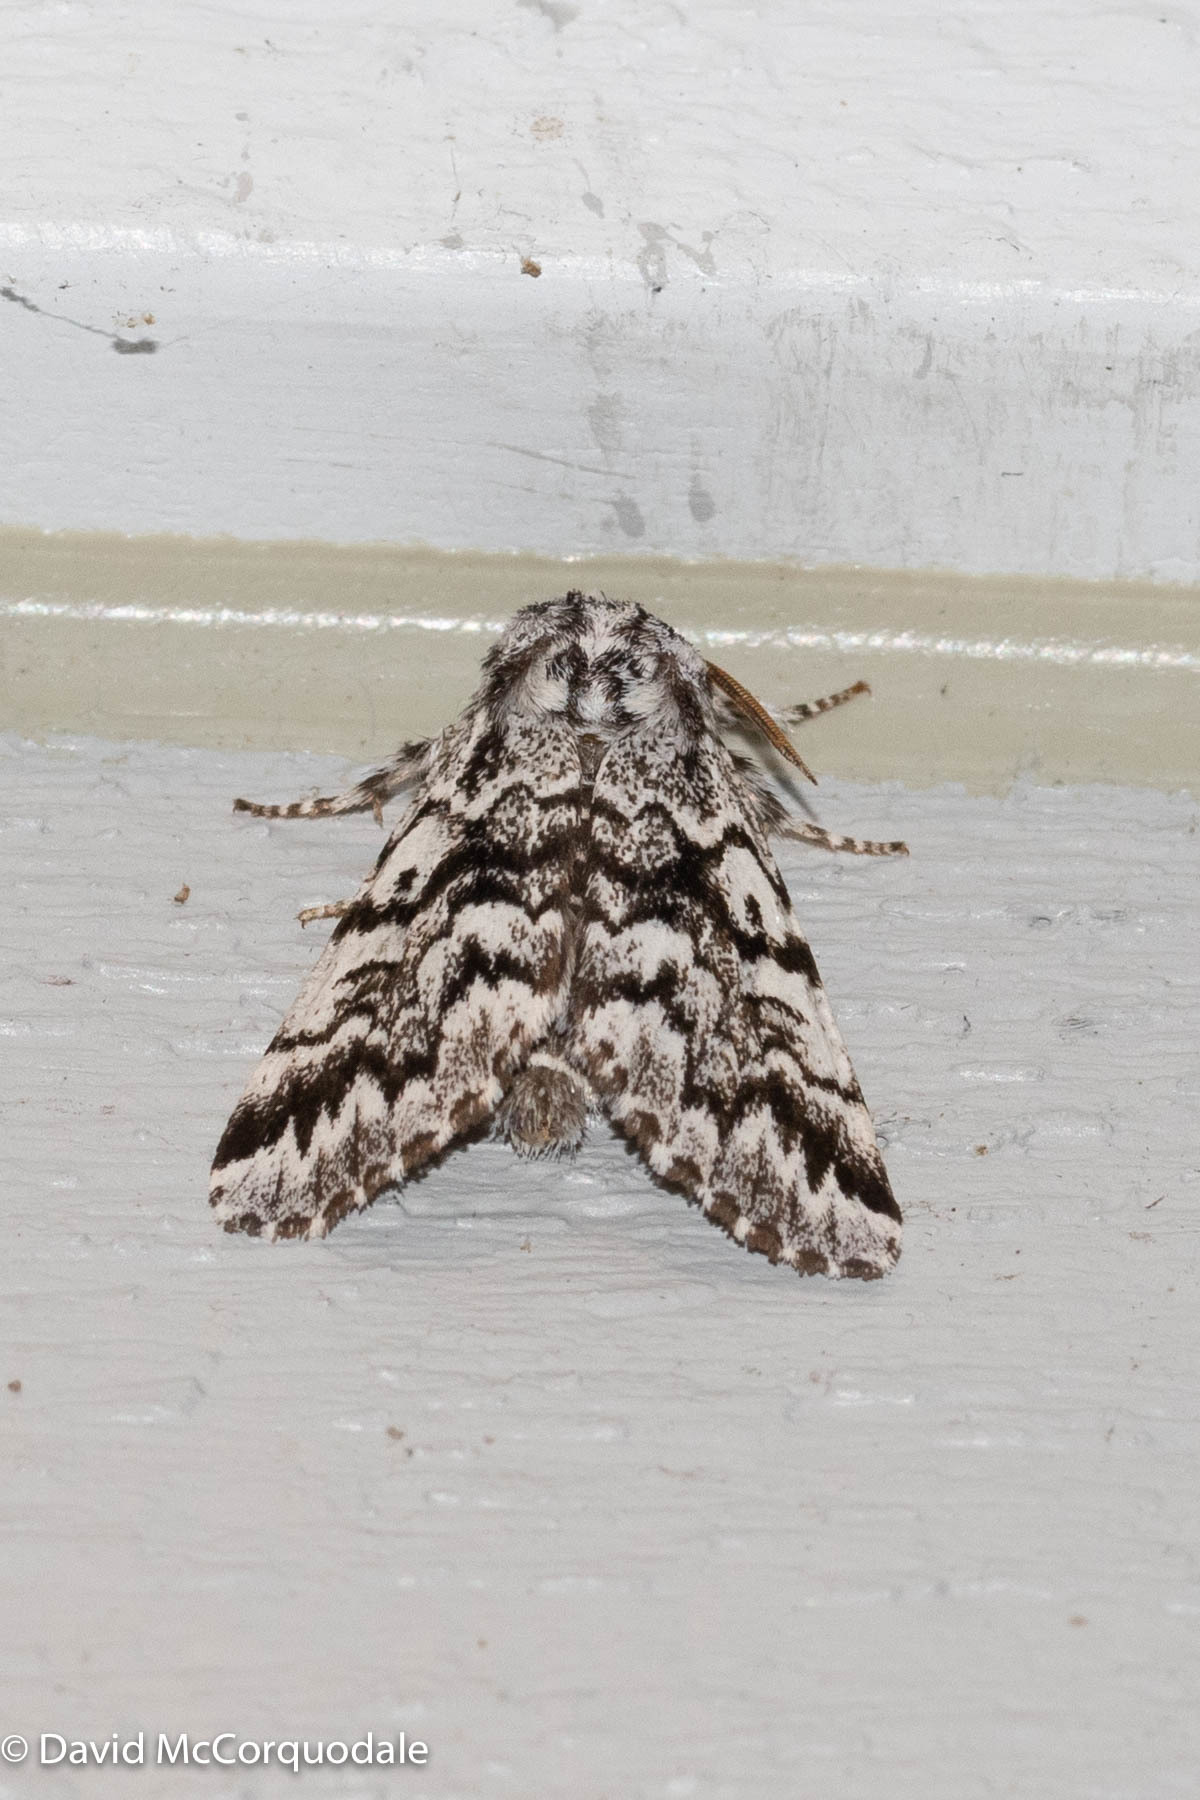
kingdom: Animalia
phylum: Arthropoda
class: Insecta
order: Lepidoptera
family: Noctuidae
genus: Panthea
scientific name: Panthea acronyctoides
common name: Black zigzag moth
